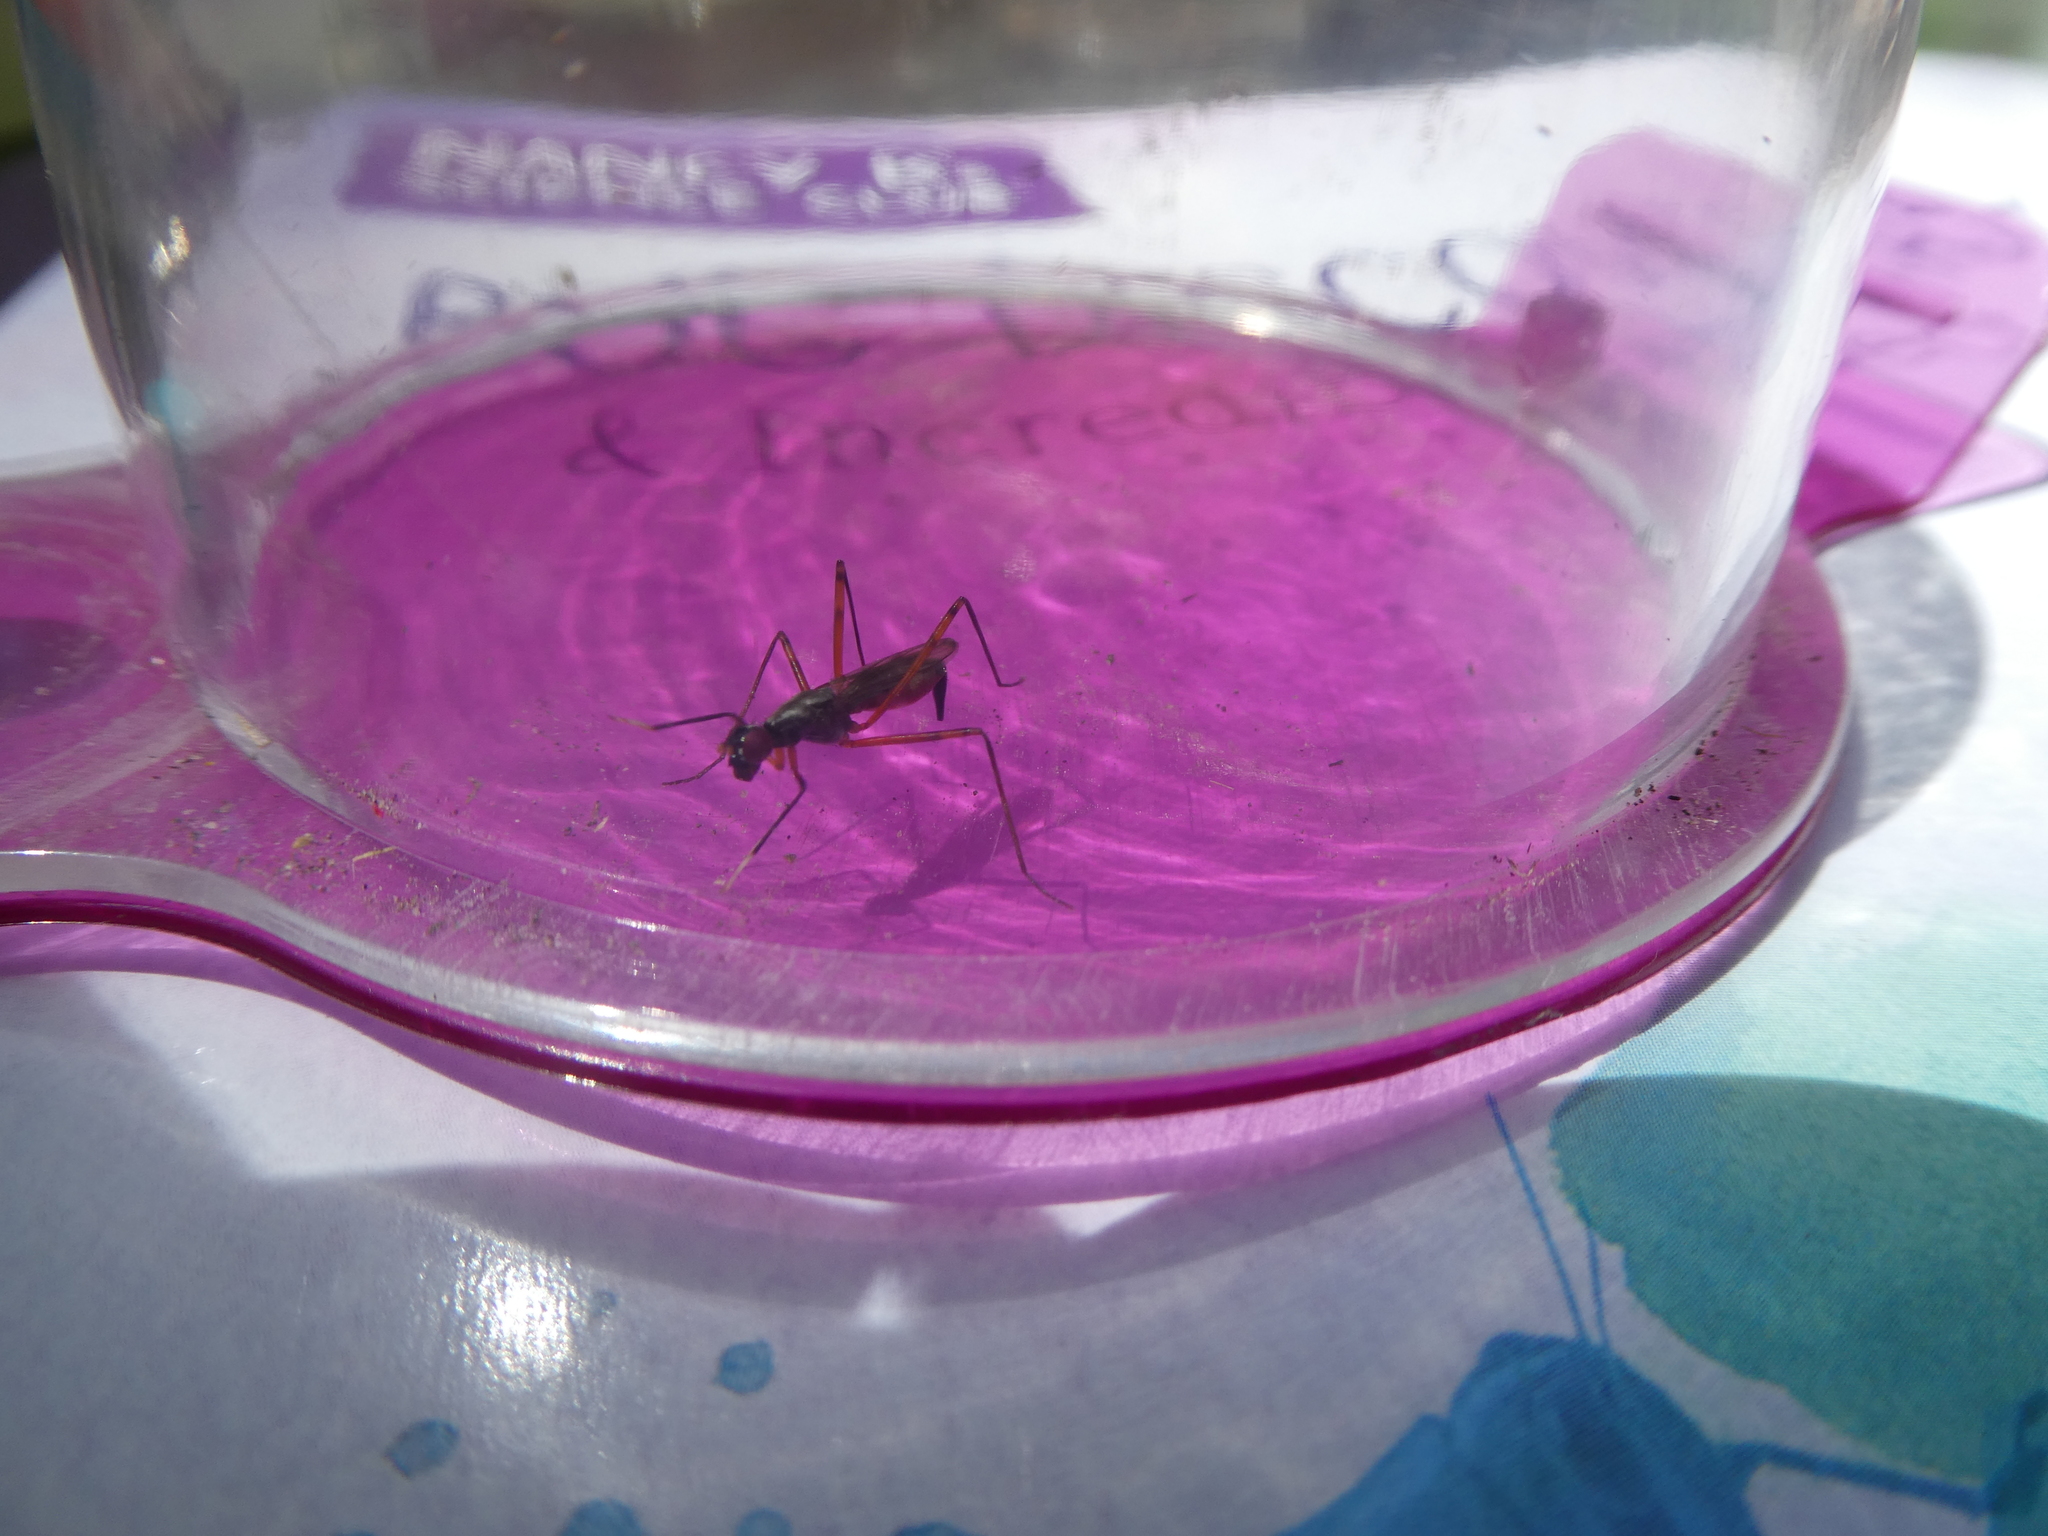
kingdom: Animalia
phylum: Arthropoda
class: Insecta
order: Diptera
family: Micropezidae
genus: Rainieria
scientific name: Rainieria antennaepes
